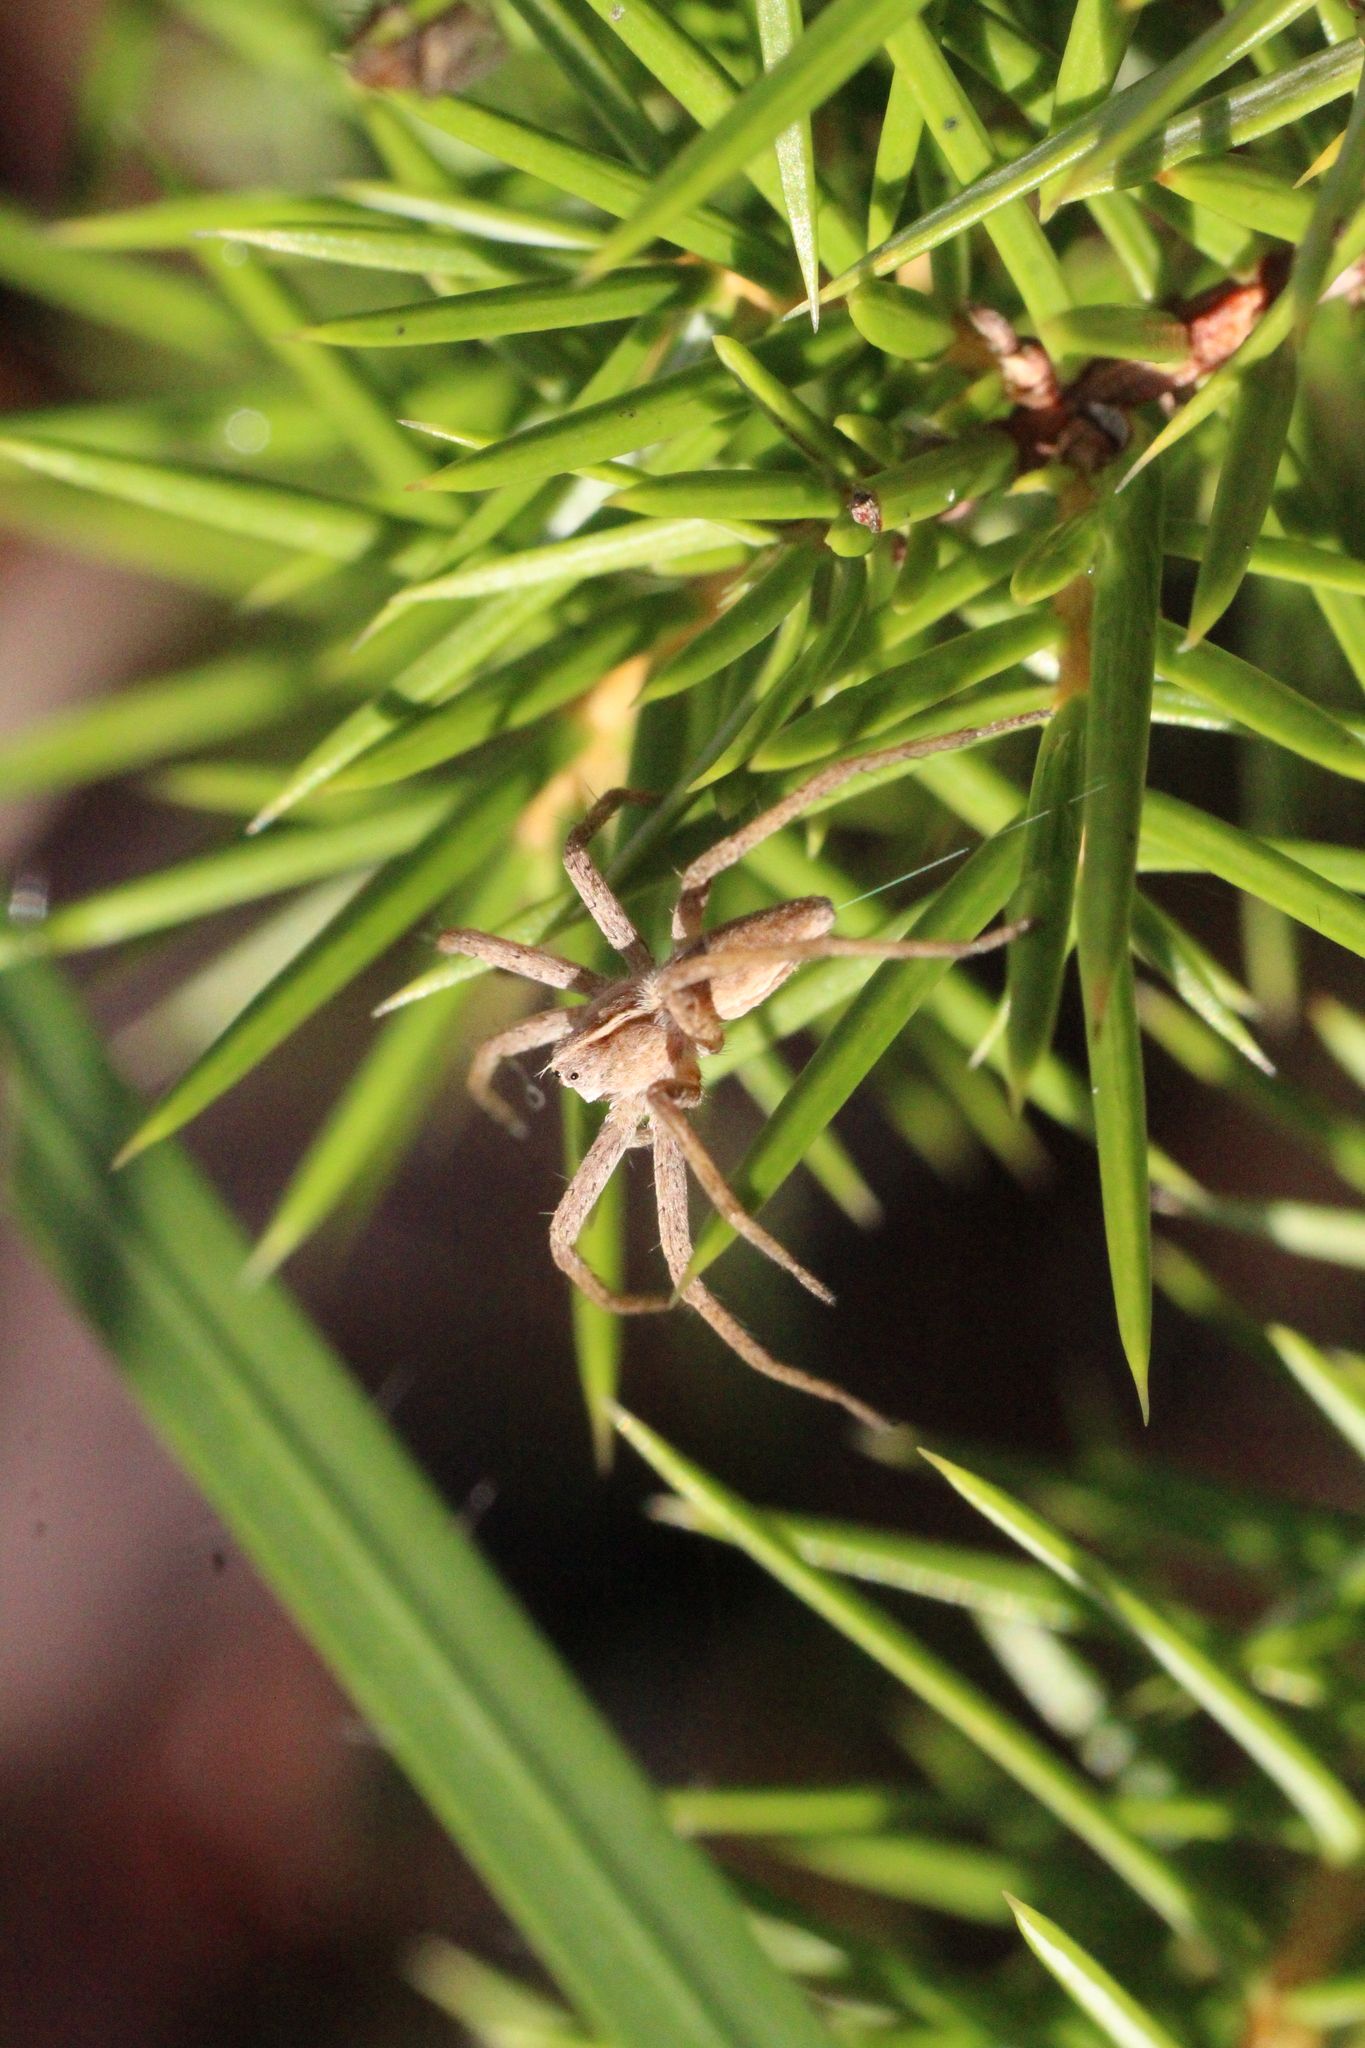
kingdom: Animalia
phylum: Arthropoda
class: Arachnida
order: Araneae
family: Pisauridae
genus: Pisaura
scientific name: Pisaura mirabilis
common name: Tent spider
